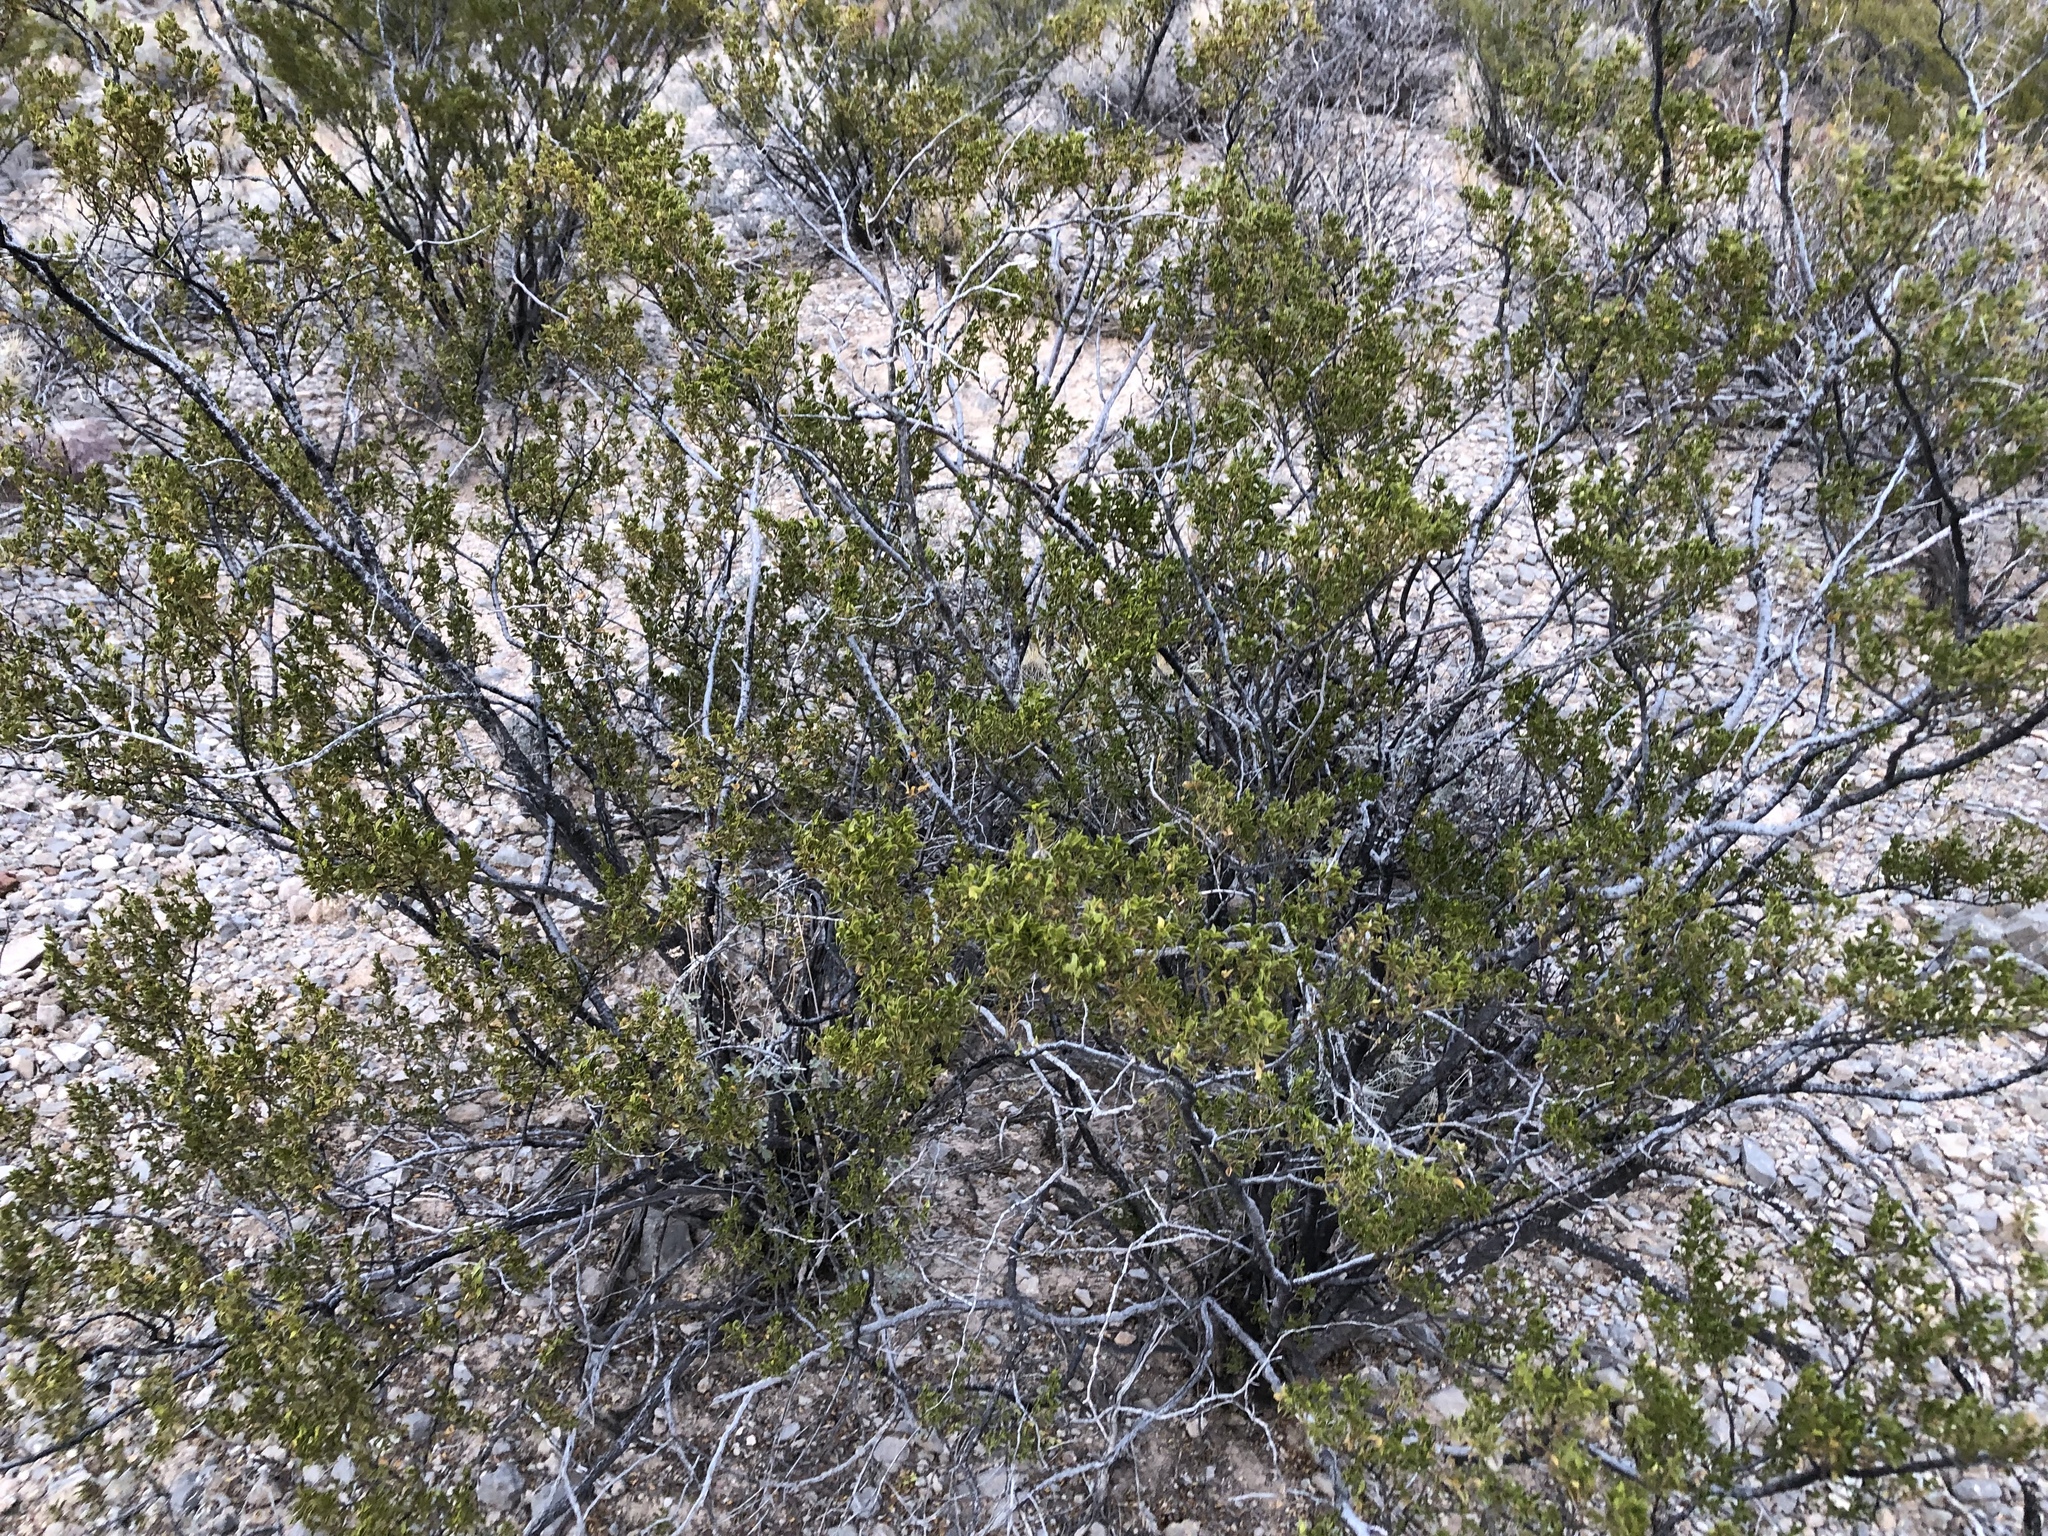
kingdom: Plantae
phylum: Tracheophyta
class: Magnoliopsida
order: Zygophyllales
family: Zygophyllaceae
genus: Larrea
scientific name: Larrea tridentata
